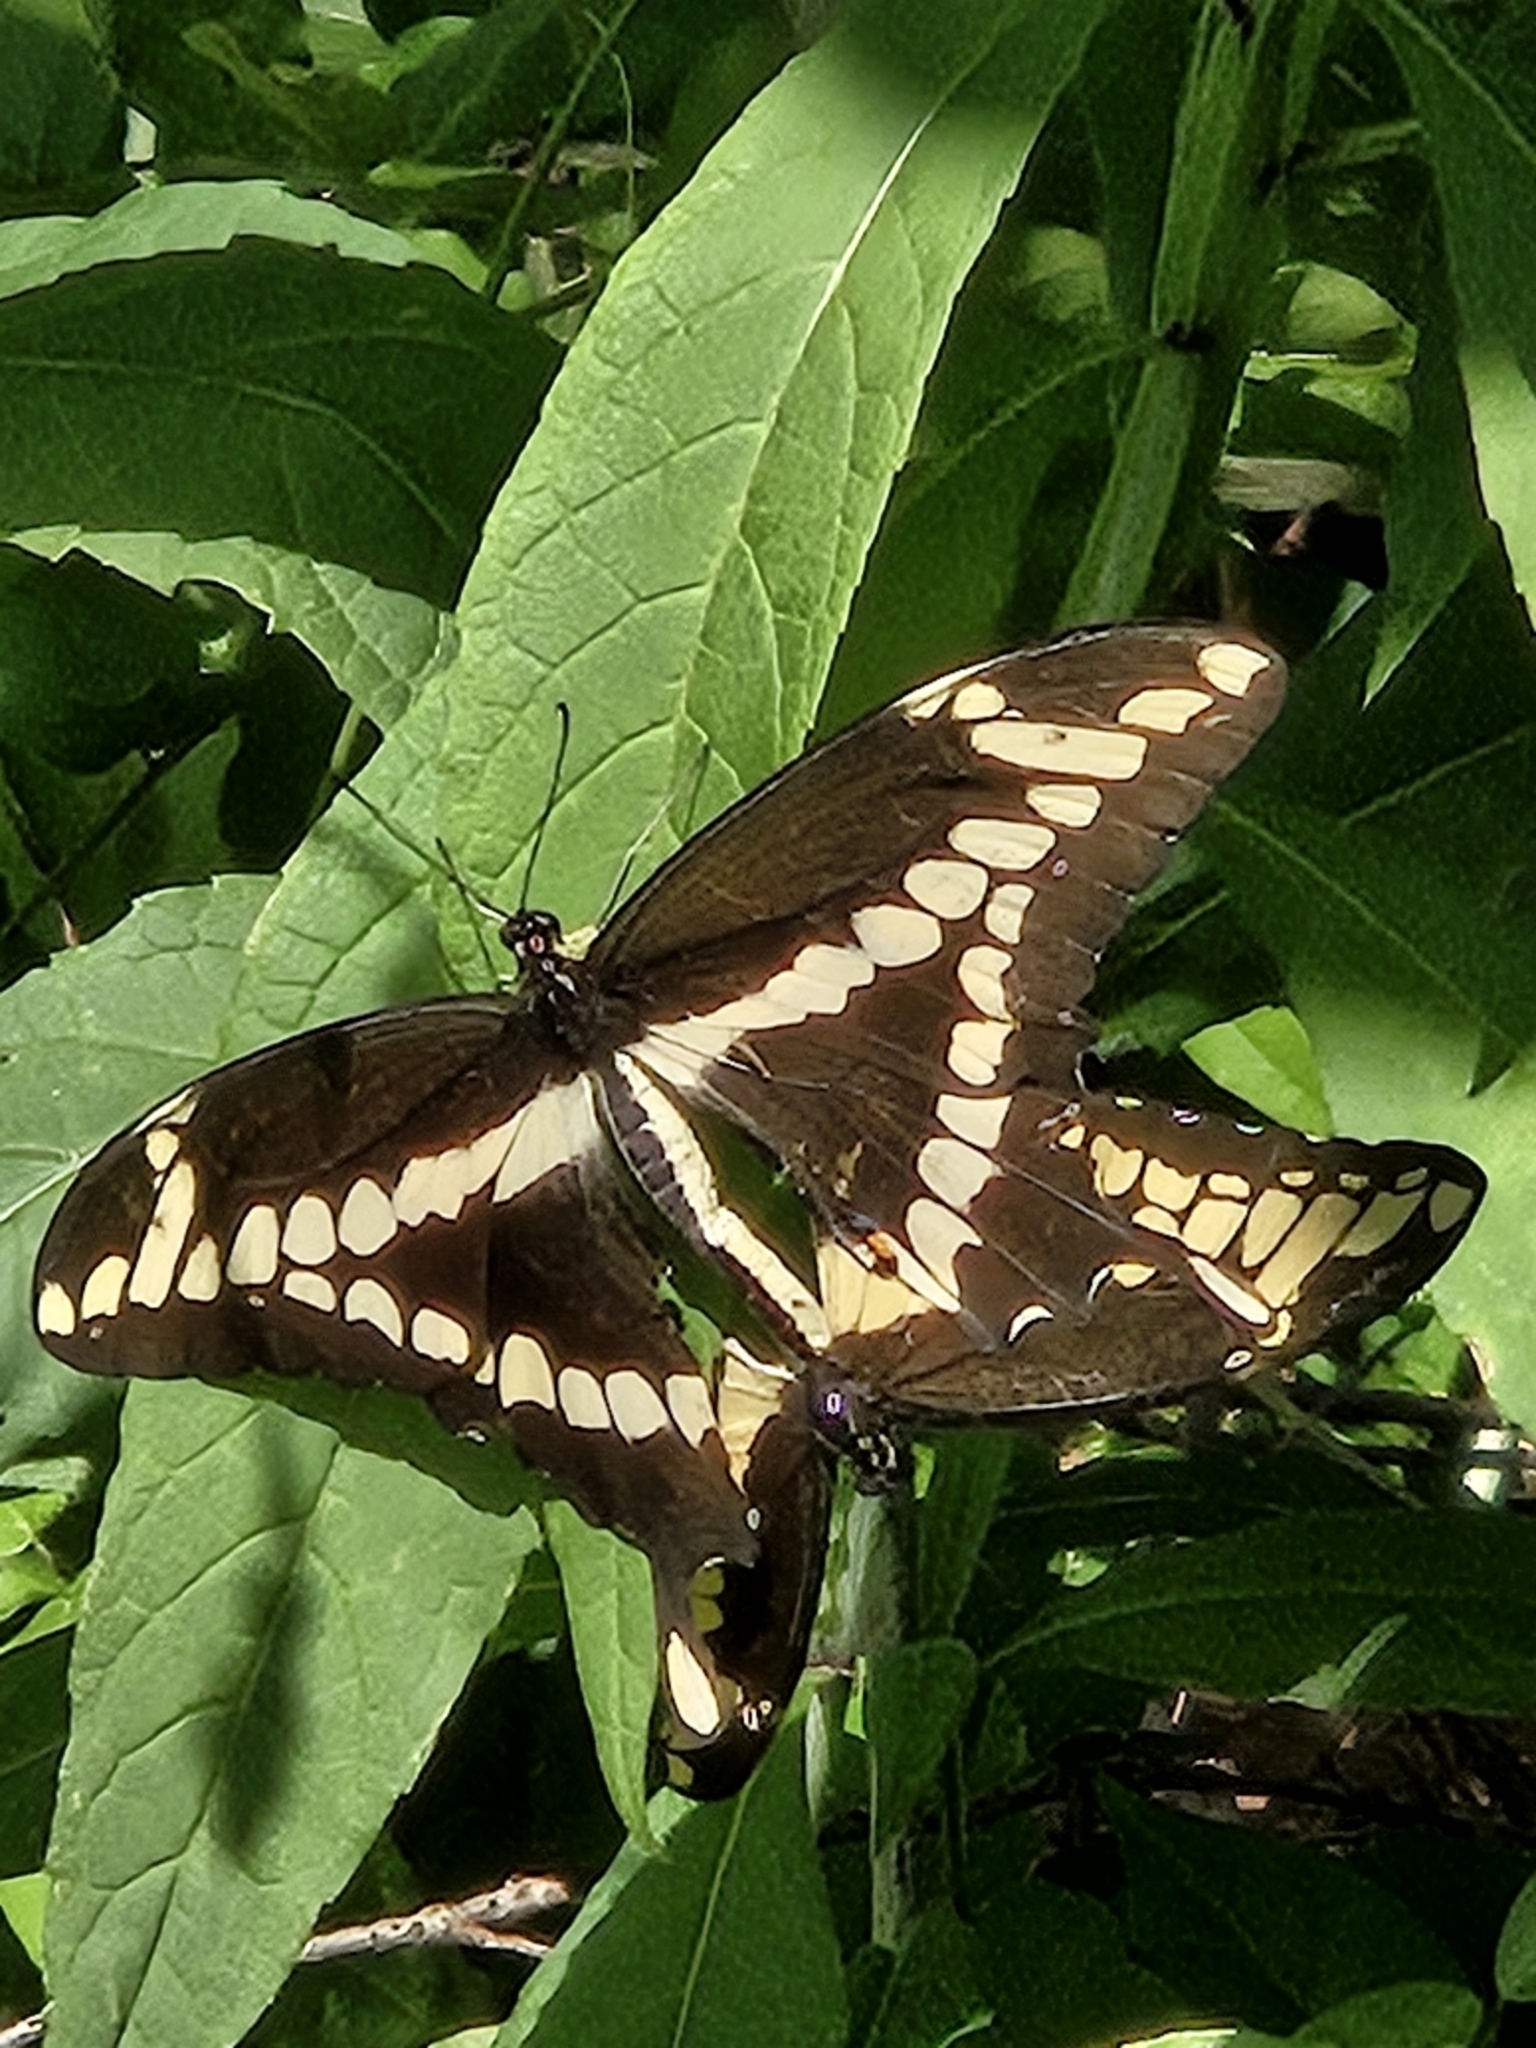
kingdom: Animalia
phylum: Arthropoda
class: Insecta
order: Lepidoptera
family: Papilionidae
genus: Papilio
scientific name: Papilio cresphontes
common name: Giant swallowtail
